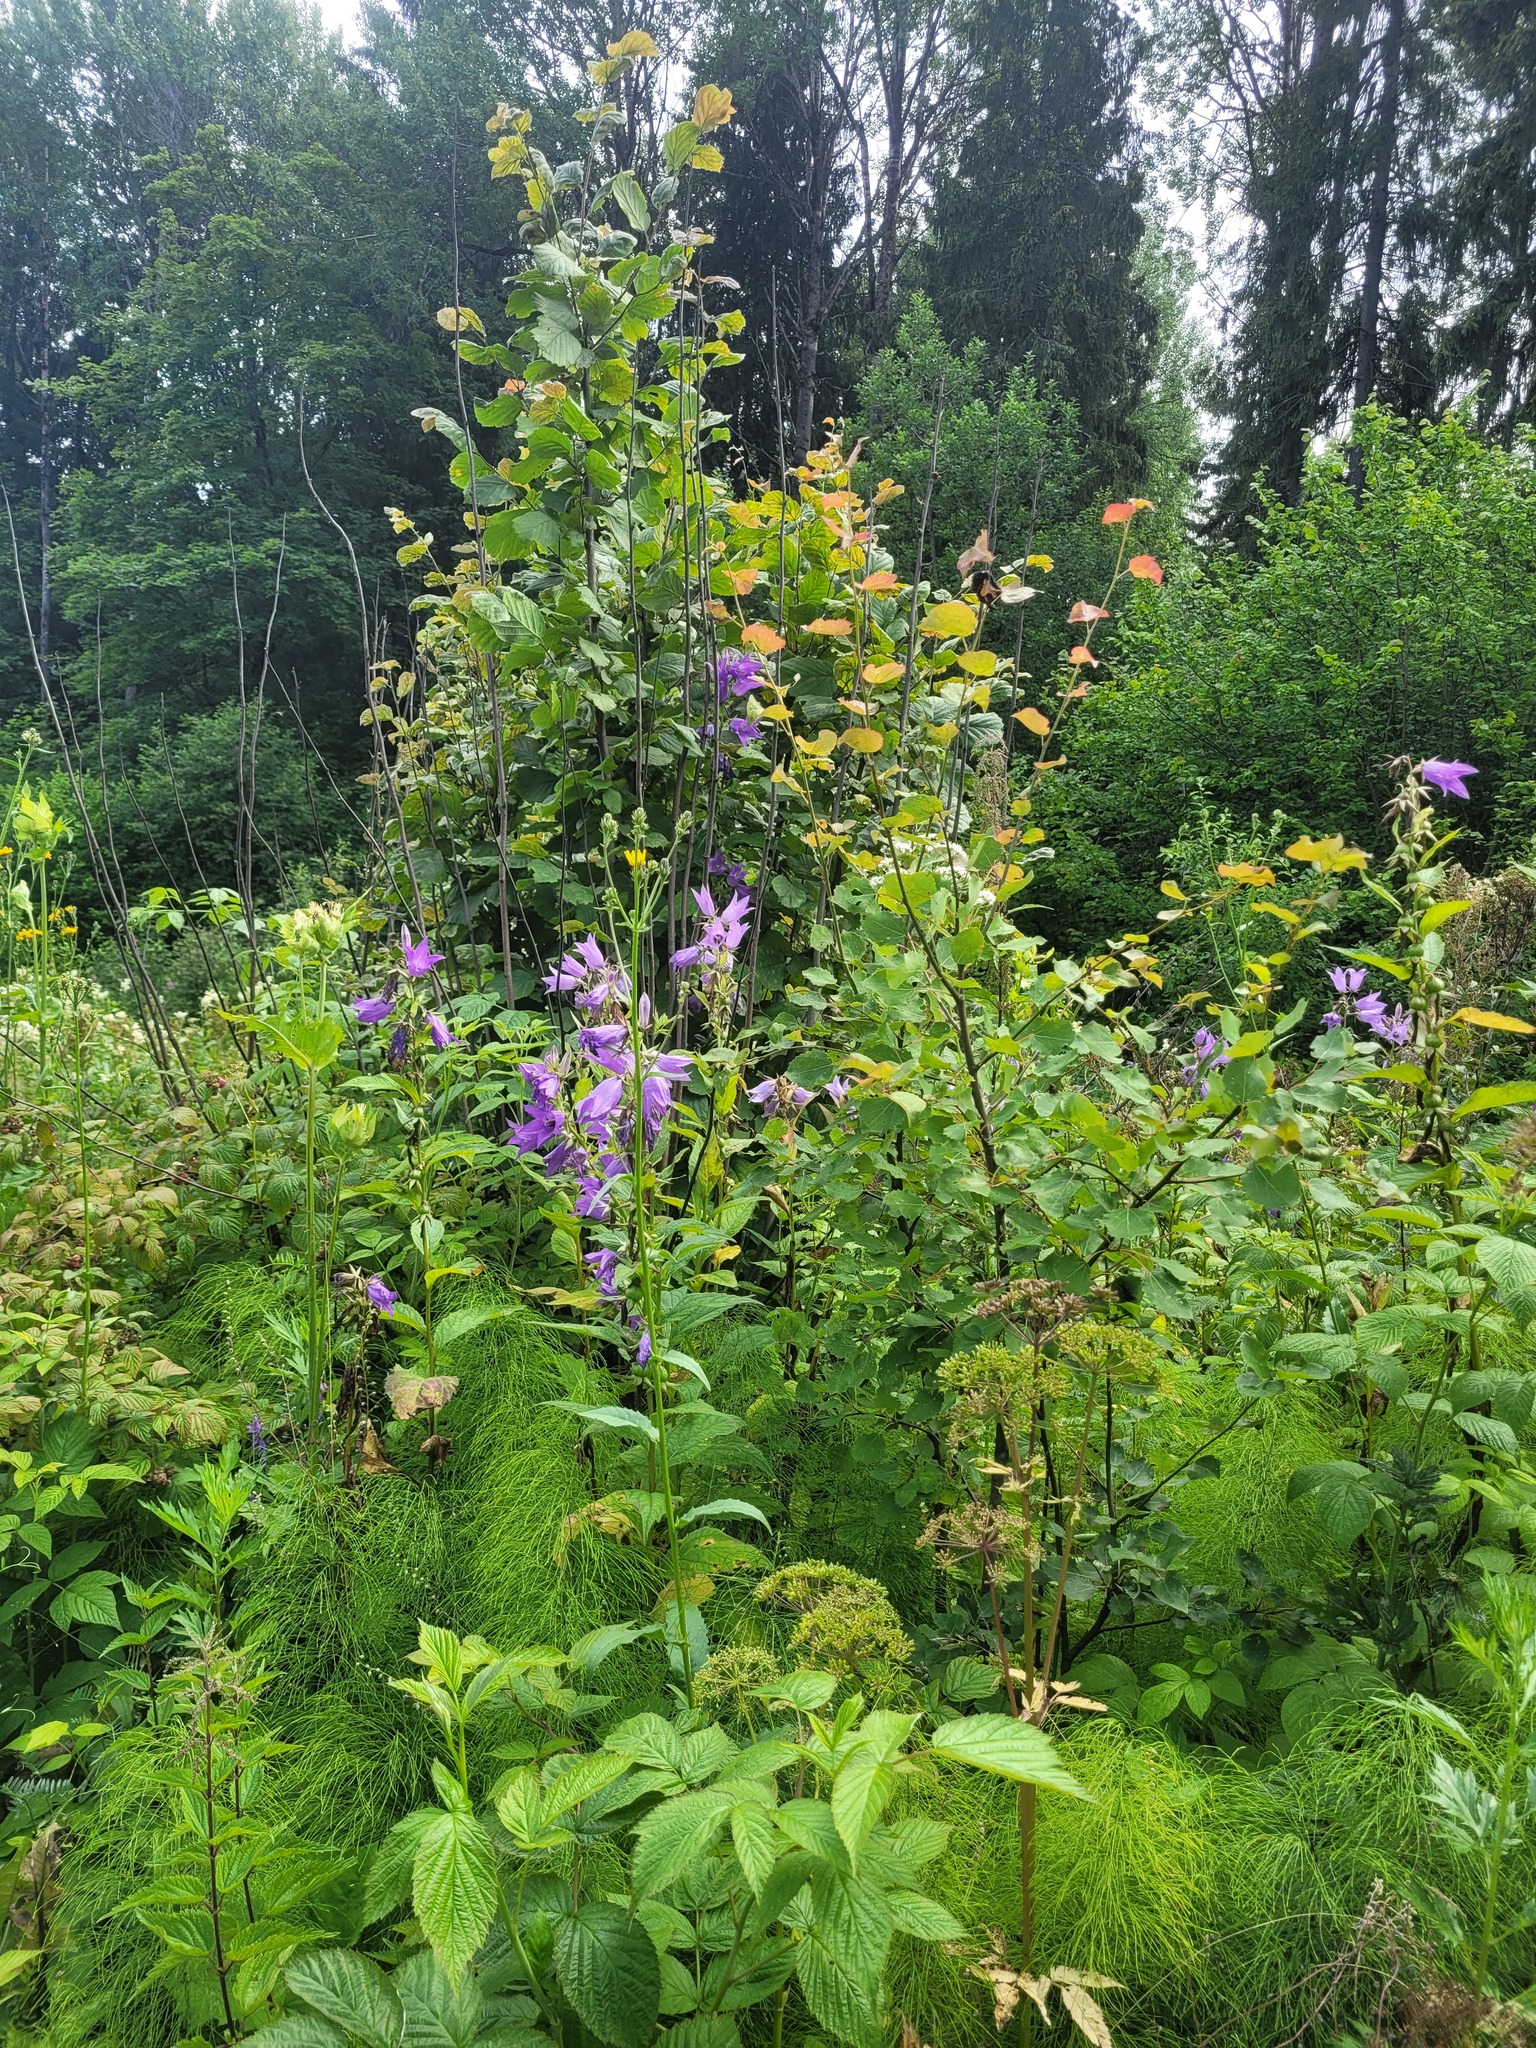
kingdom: Plantae
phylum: Tracheophyta
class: Magnoliopsida
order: Asterales
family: Campanulaceae
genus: Campanula
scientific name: Campanula latifolia
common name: Giant bellflower
